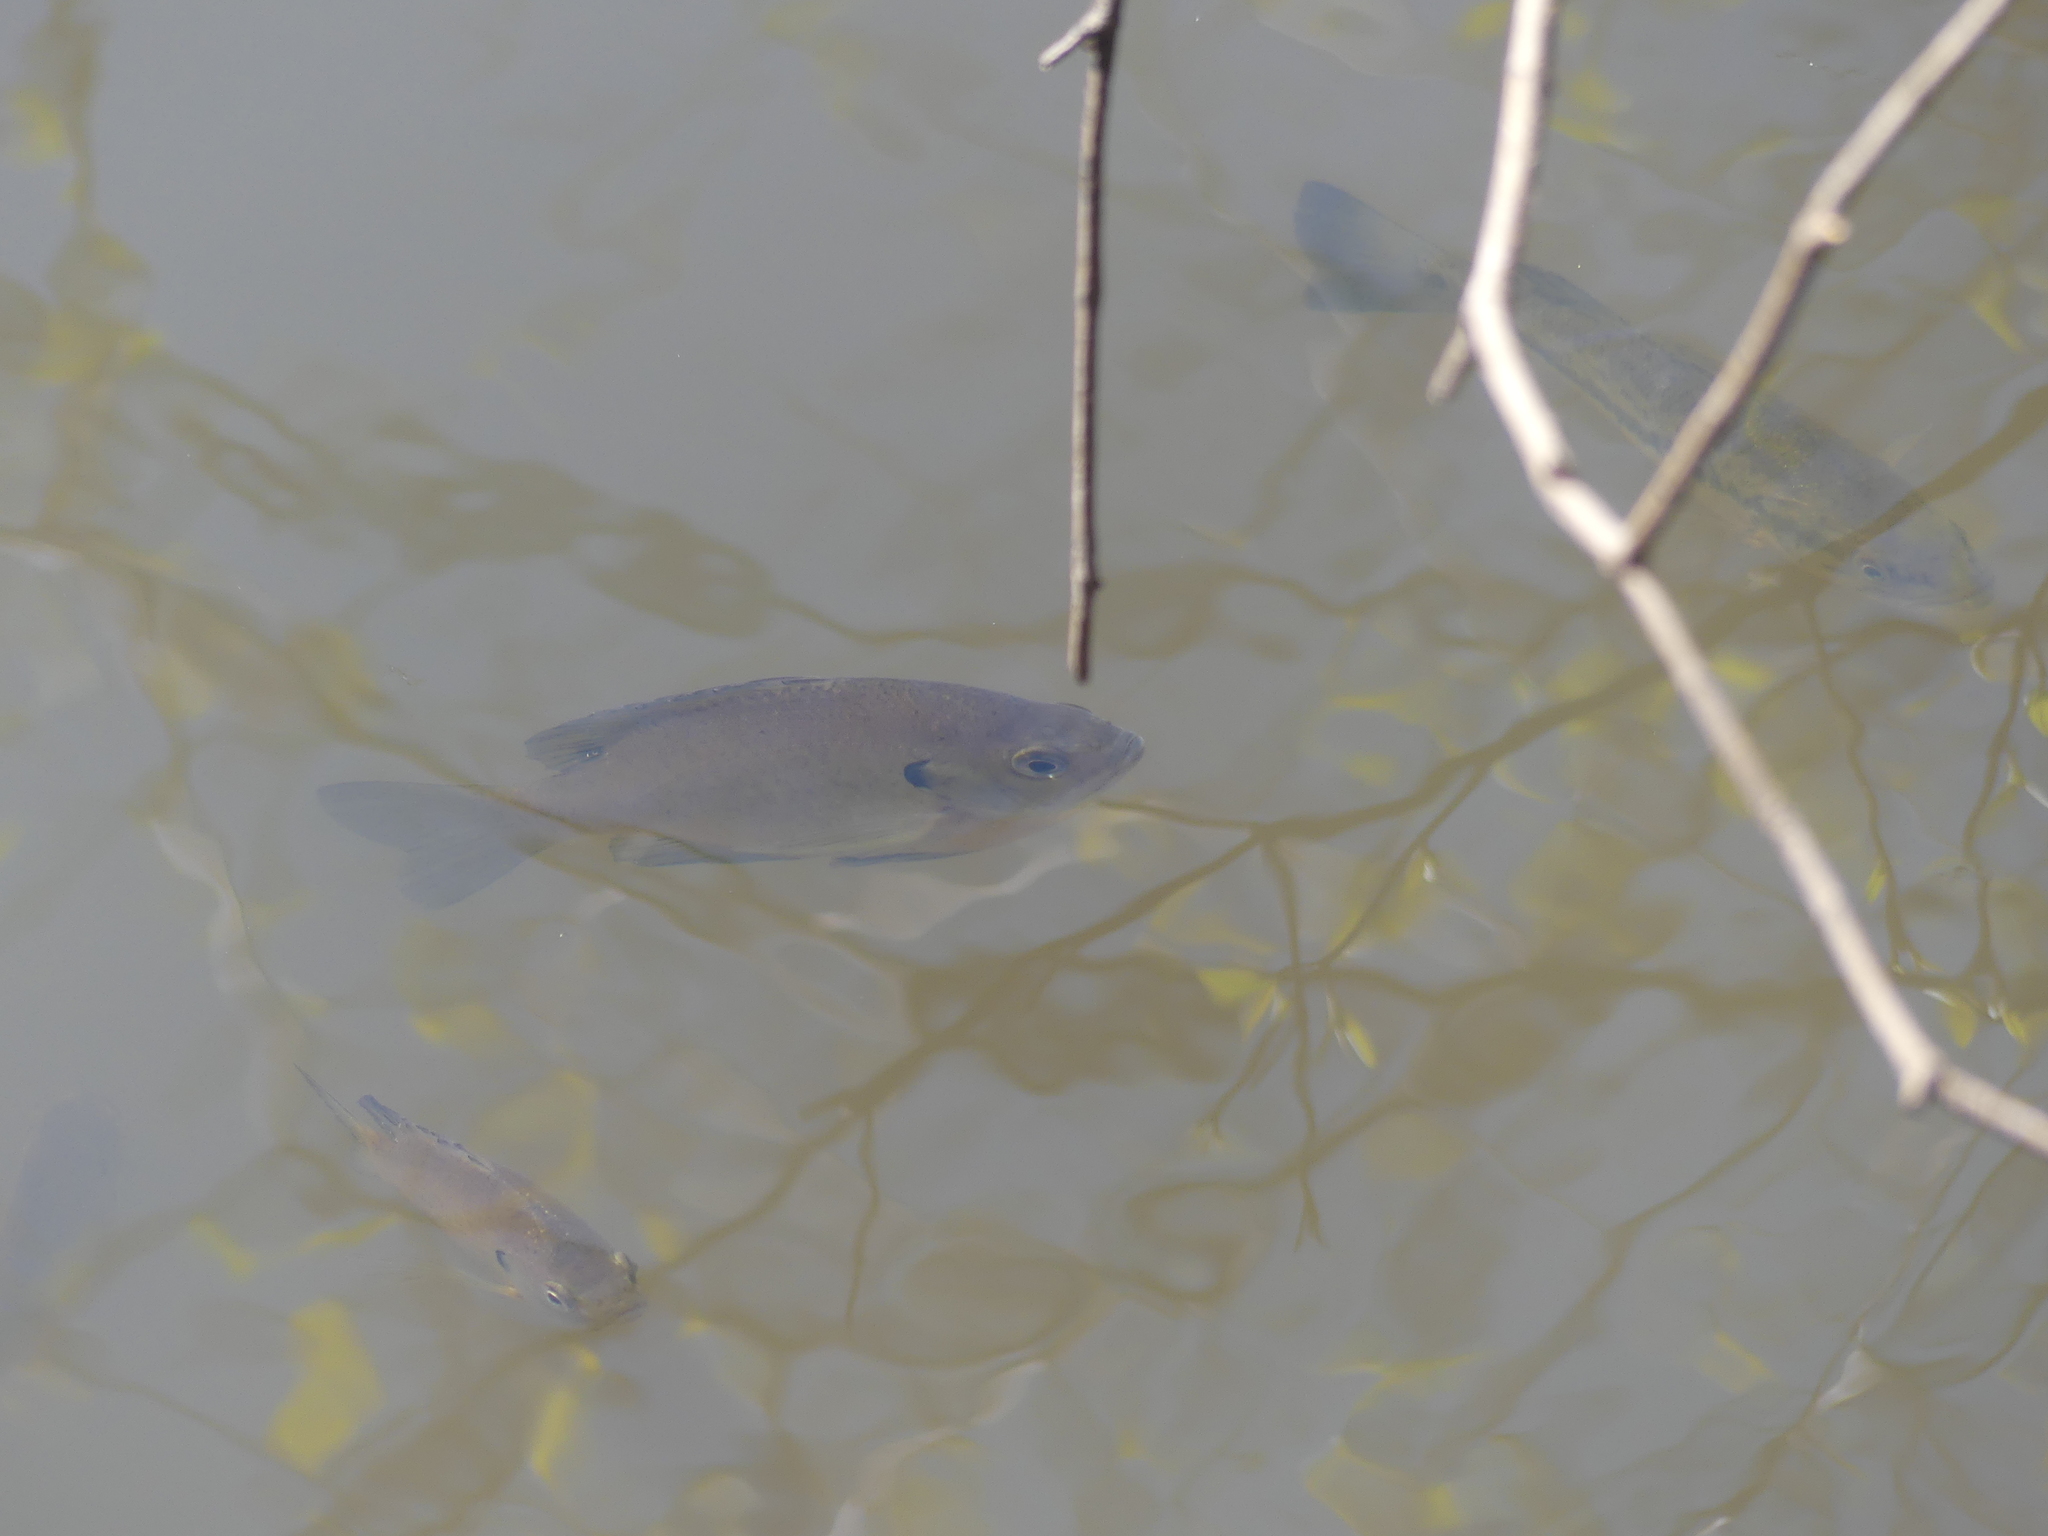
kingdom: Animalia
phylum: Chordata
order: Perciformes
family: Centrarchidae
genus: Lepomis
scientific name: Lepomis macrochirus
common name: Bluegill
